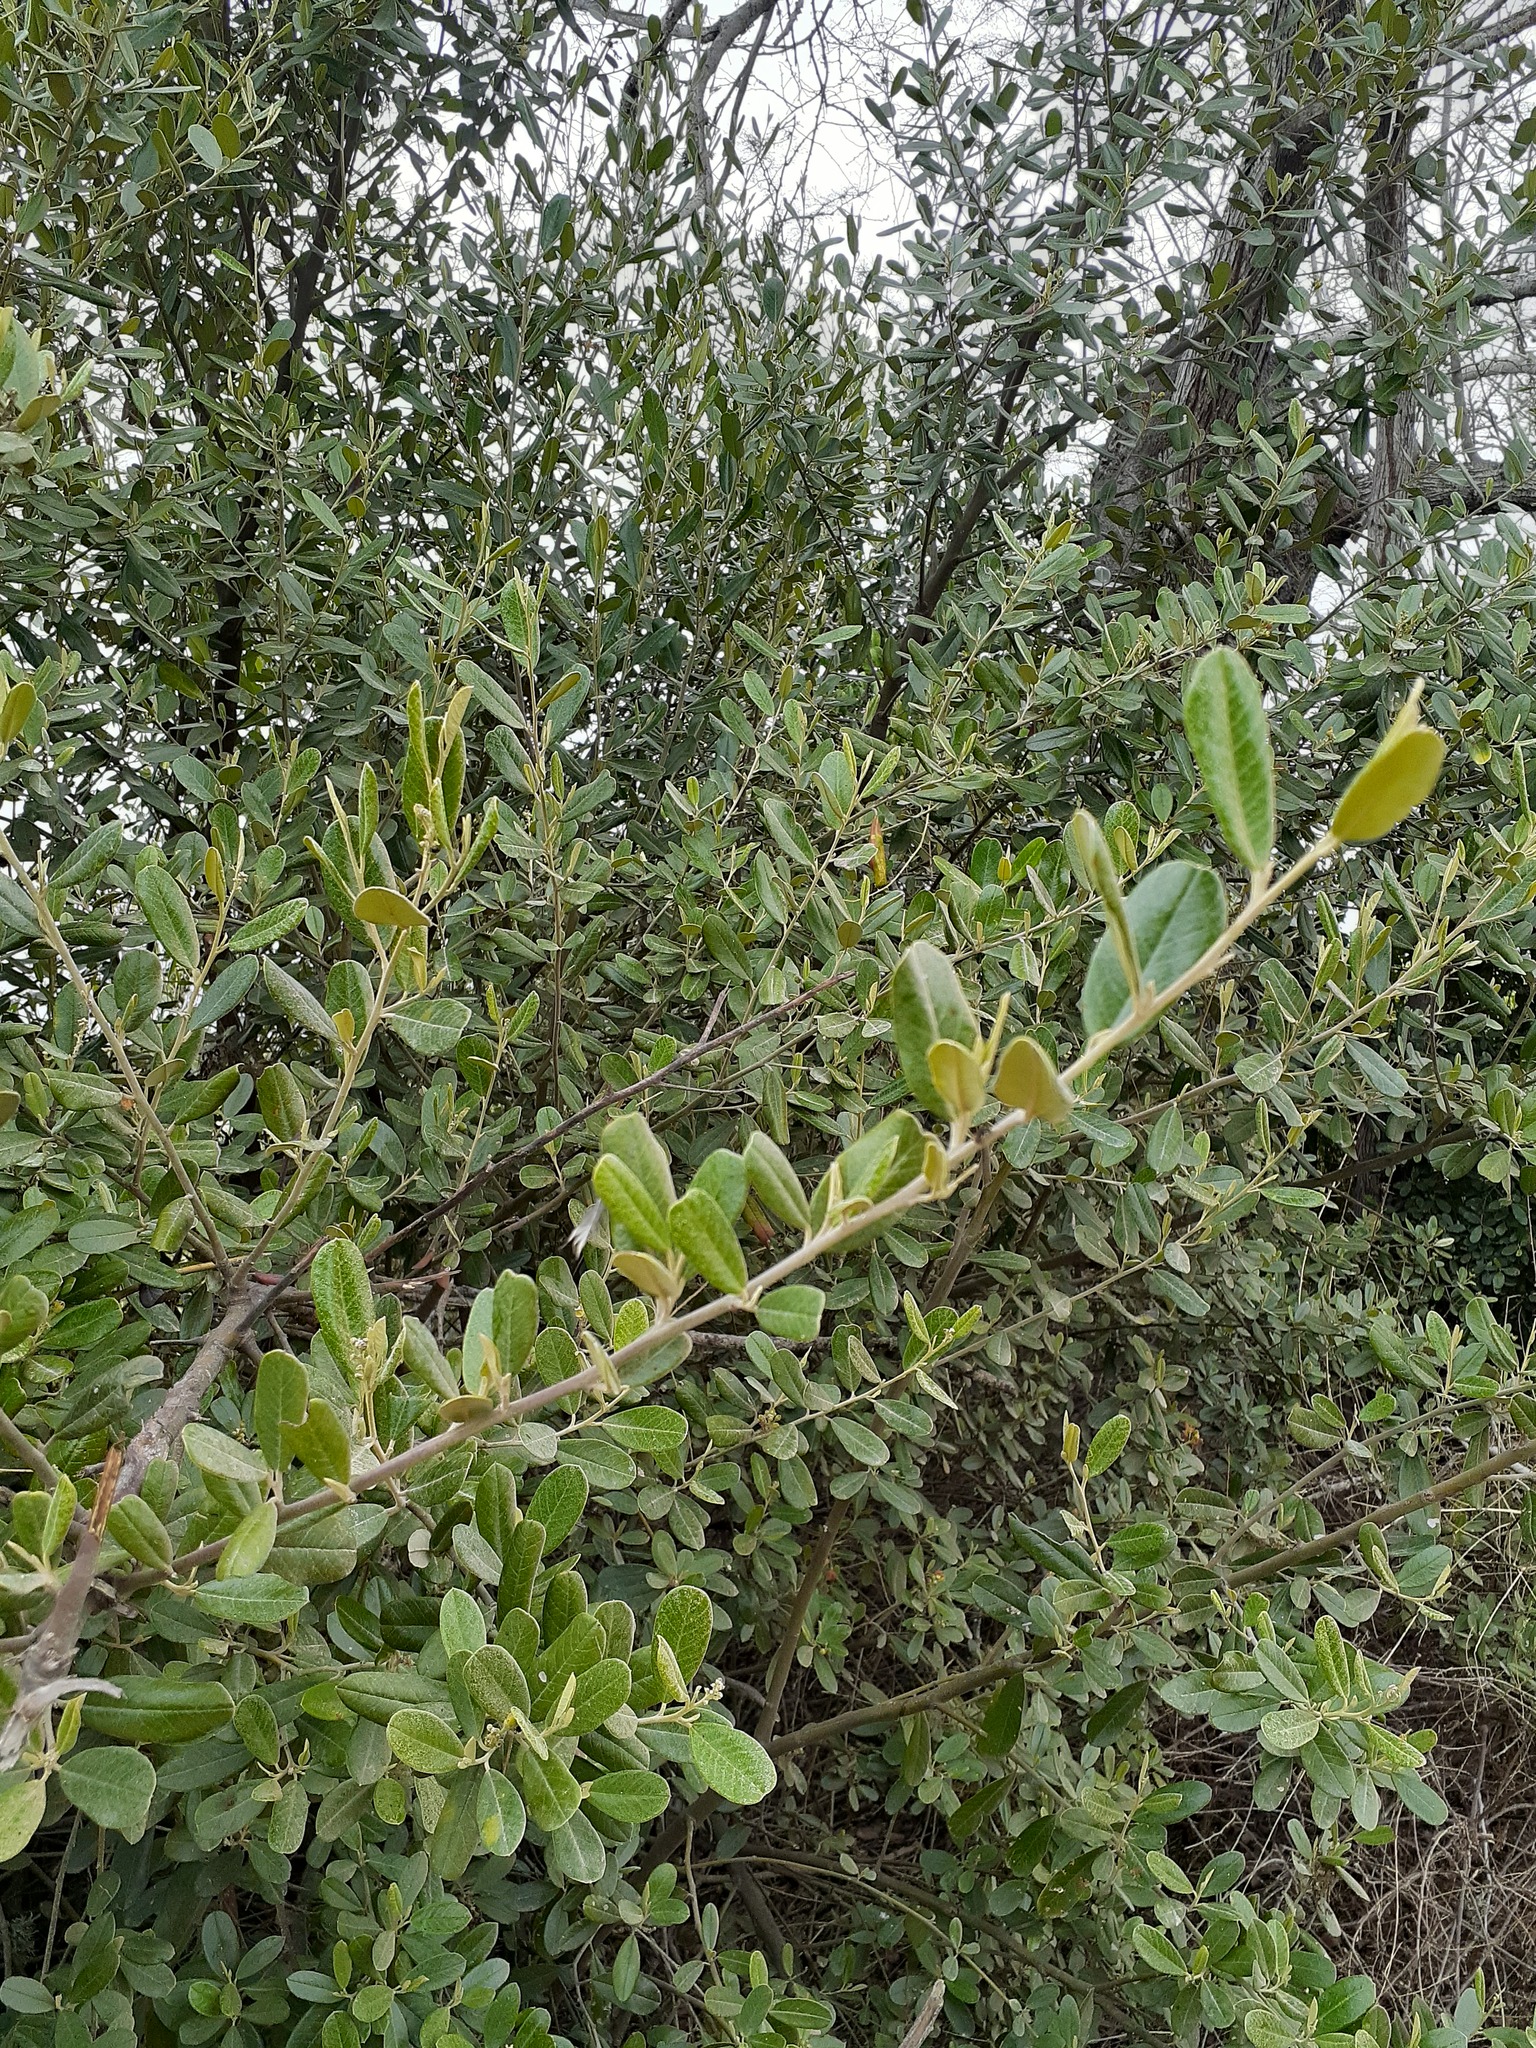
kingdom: Plantae
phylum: Tracheophyta
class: Magnoliopsida
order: Brassicales
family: Capparaceae
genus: Beautempsia
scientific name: Beautempsia avicenniifolia
